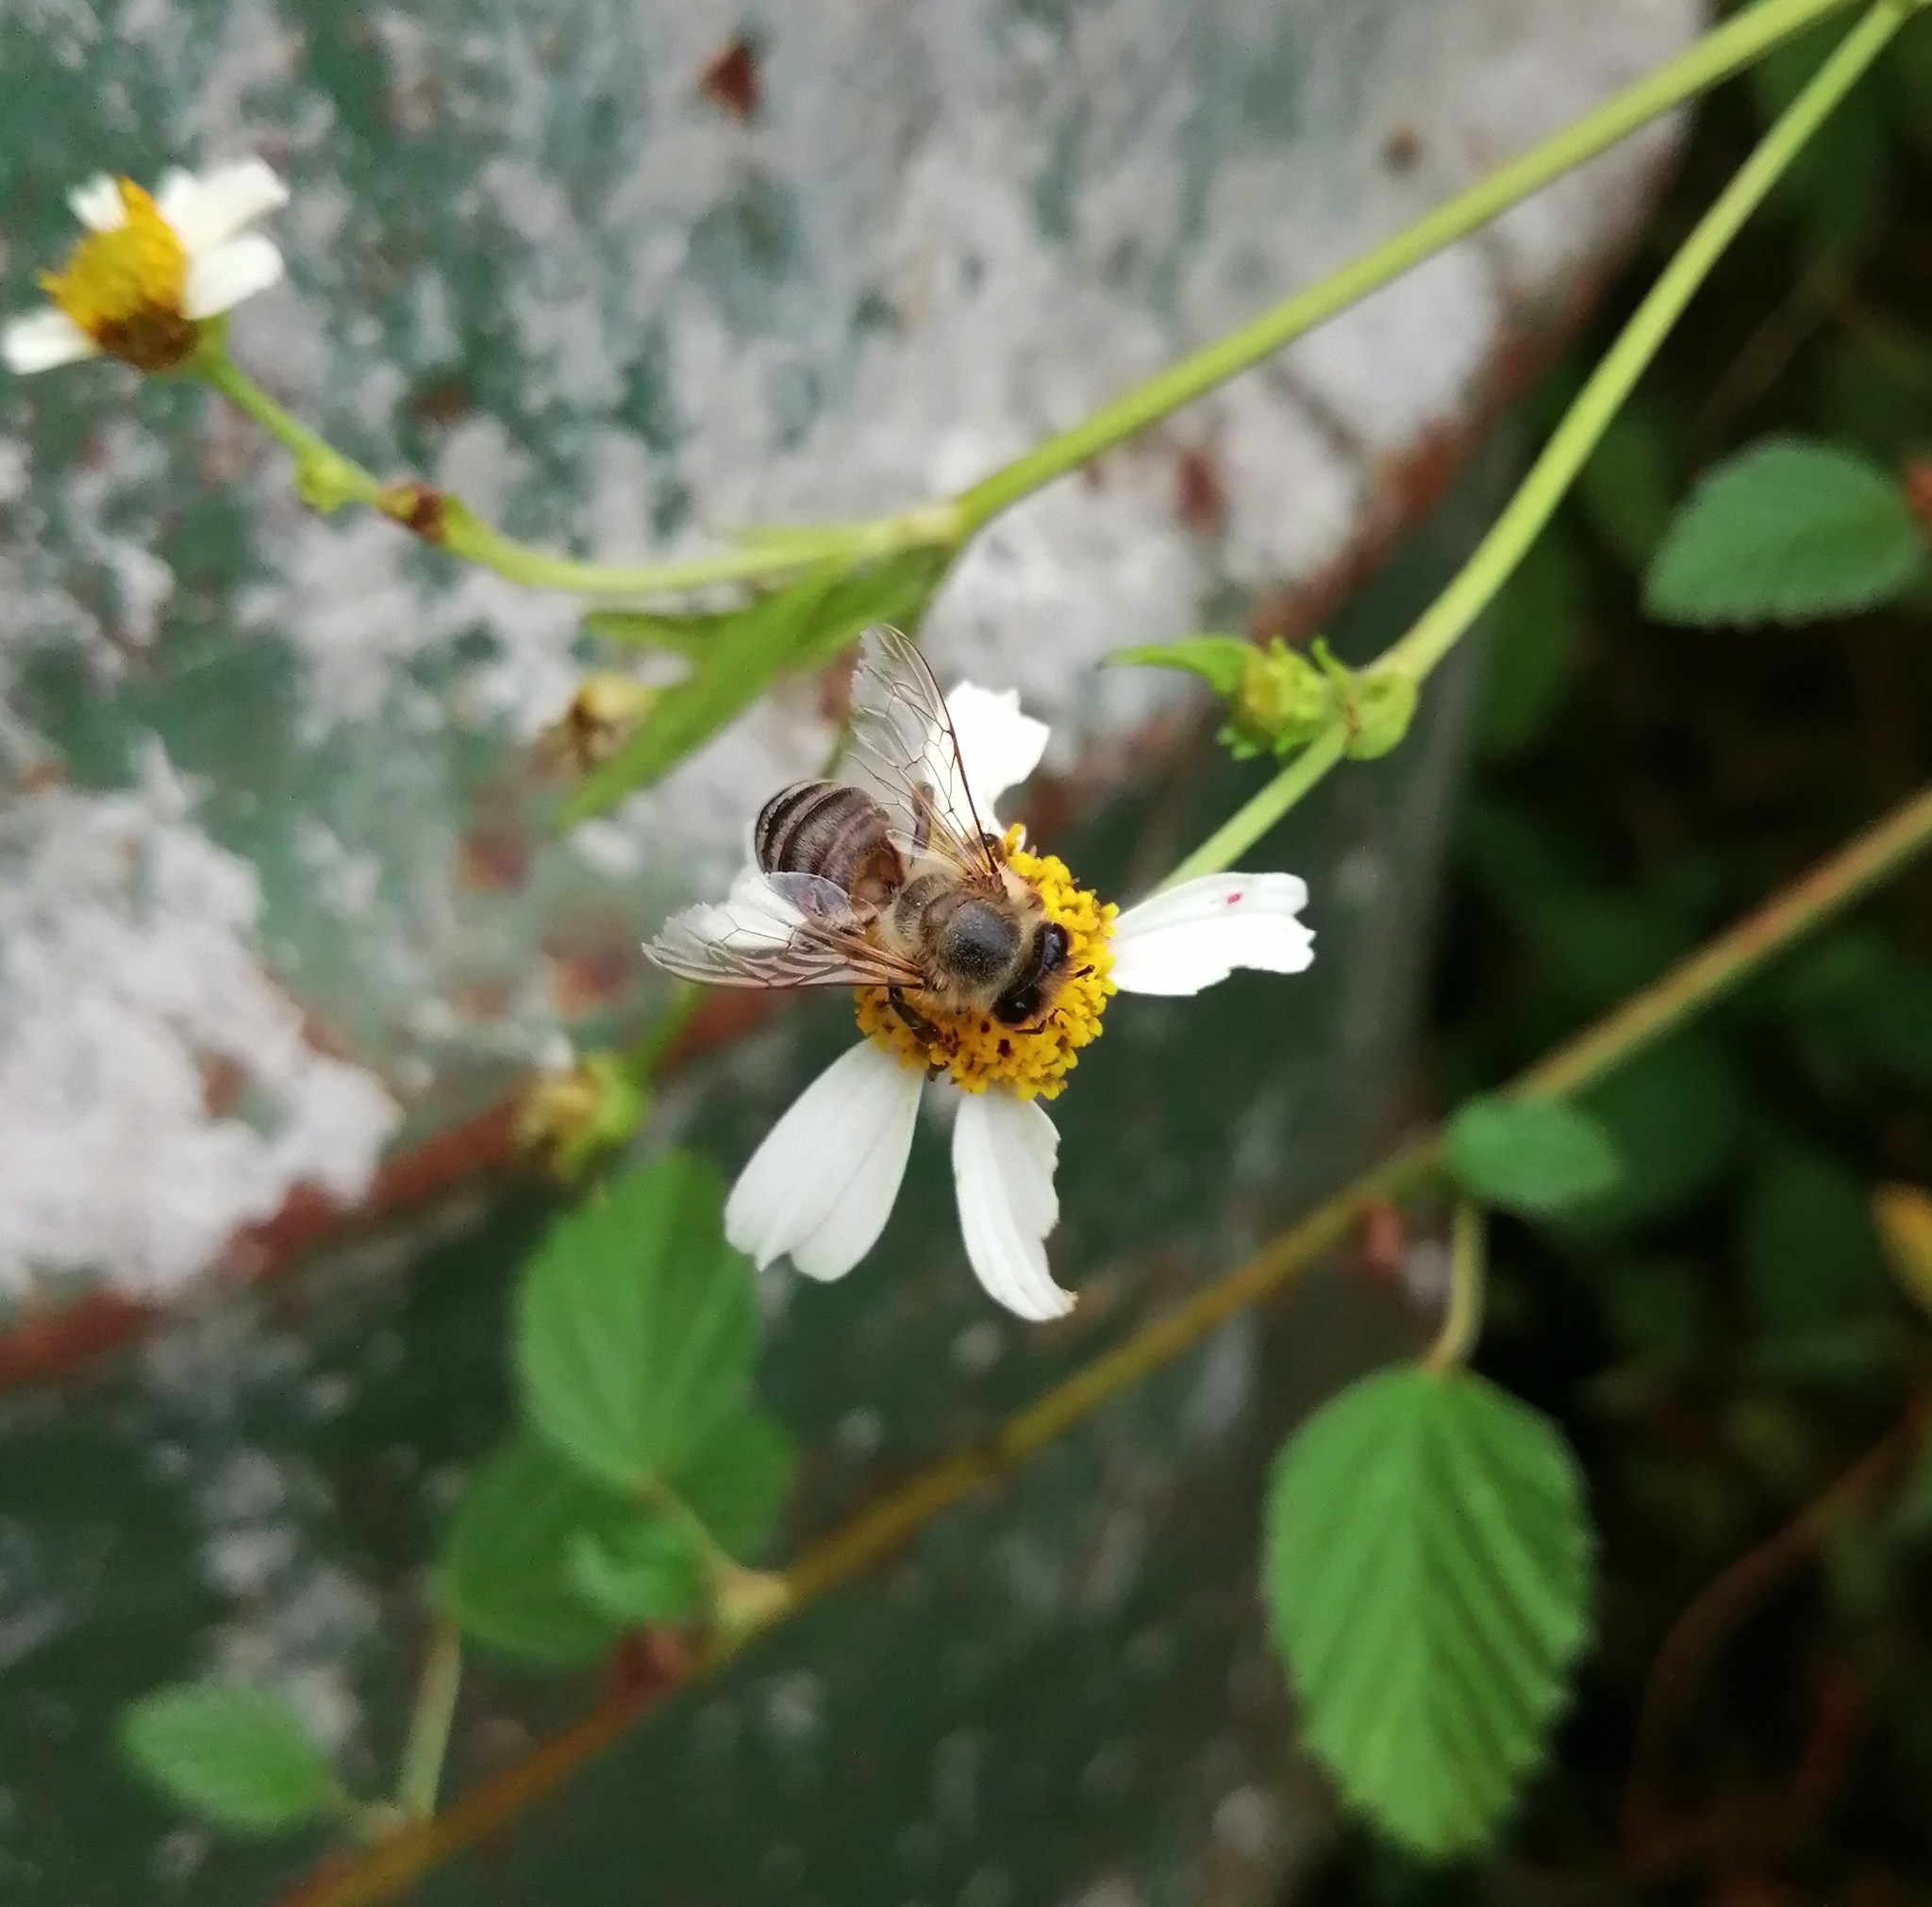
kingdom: Animalia
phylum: Arthropoda
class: Insecta
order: Hymenoptera
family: Apidae
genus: Apis
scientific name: Apis mellifera
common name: Honey bee
